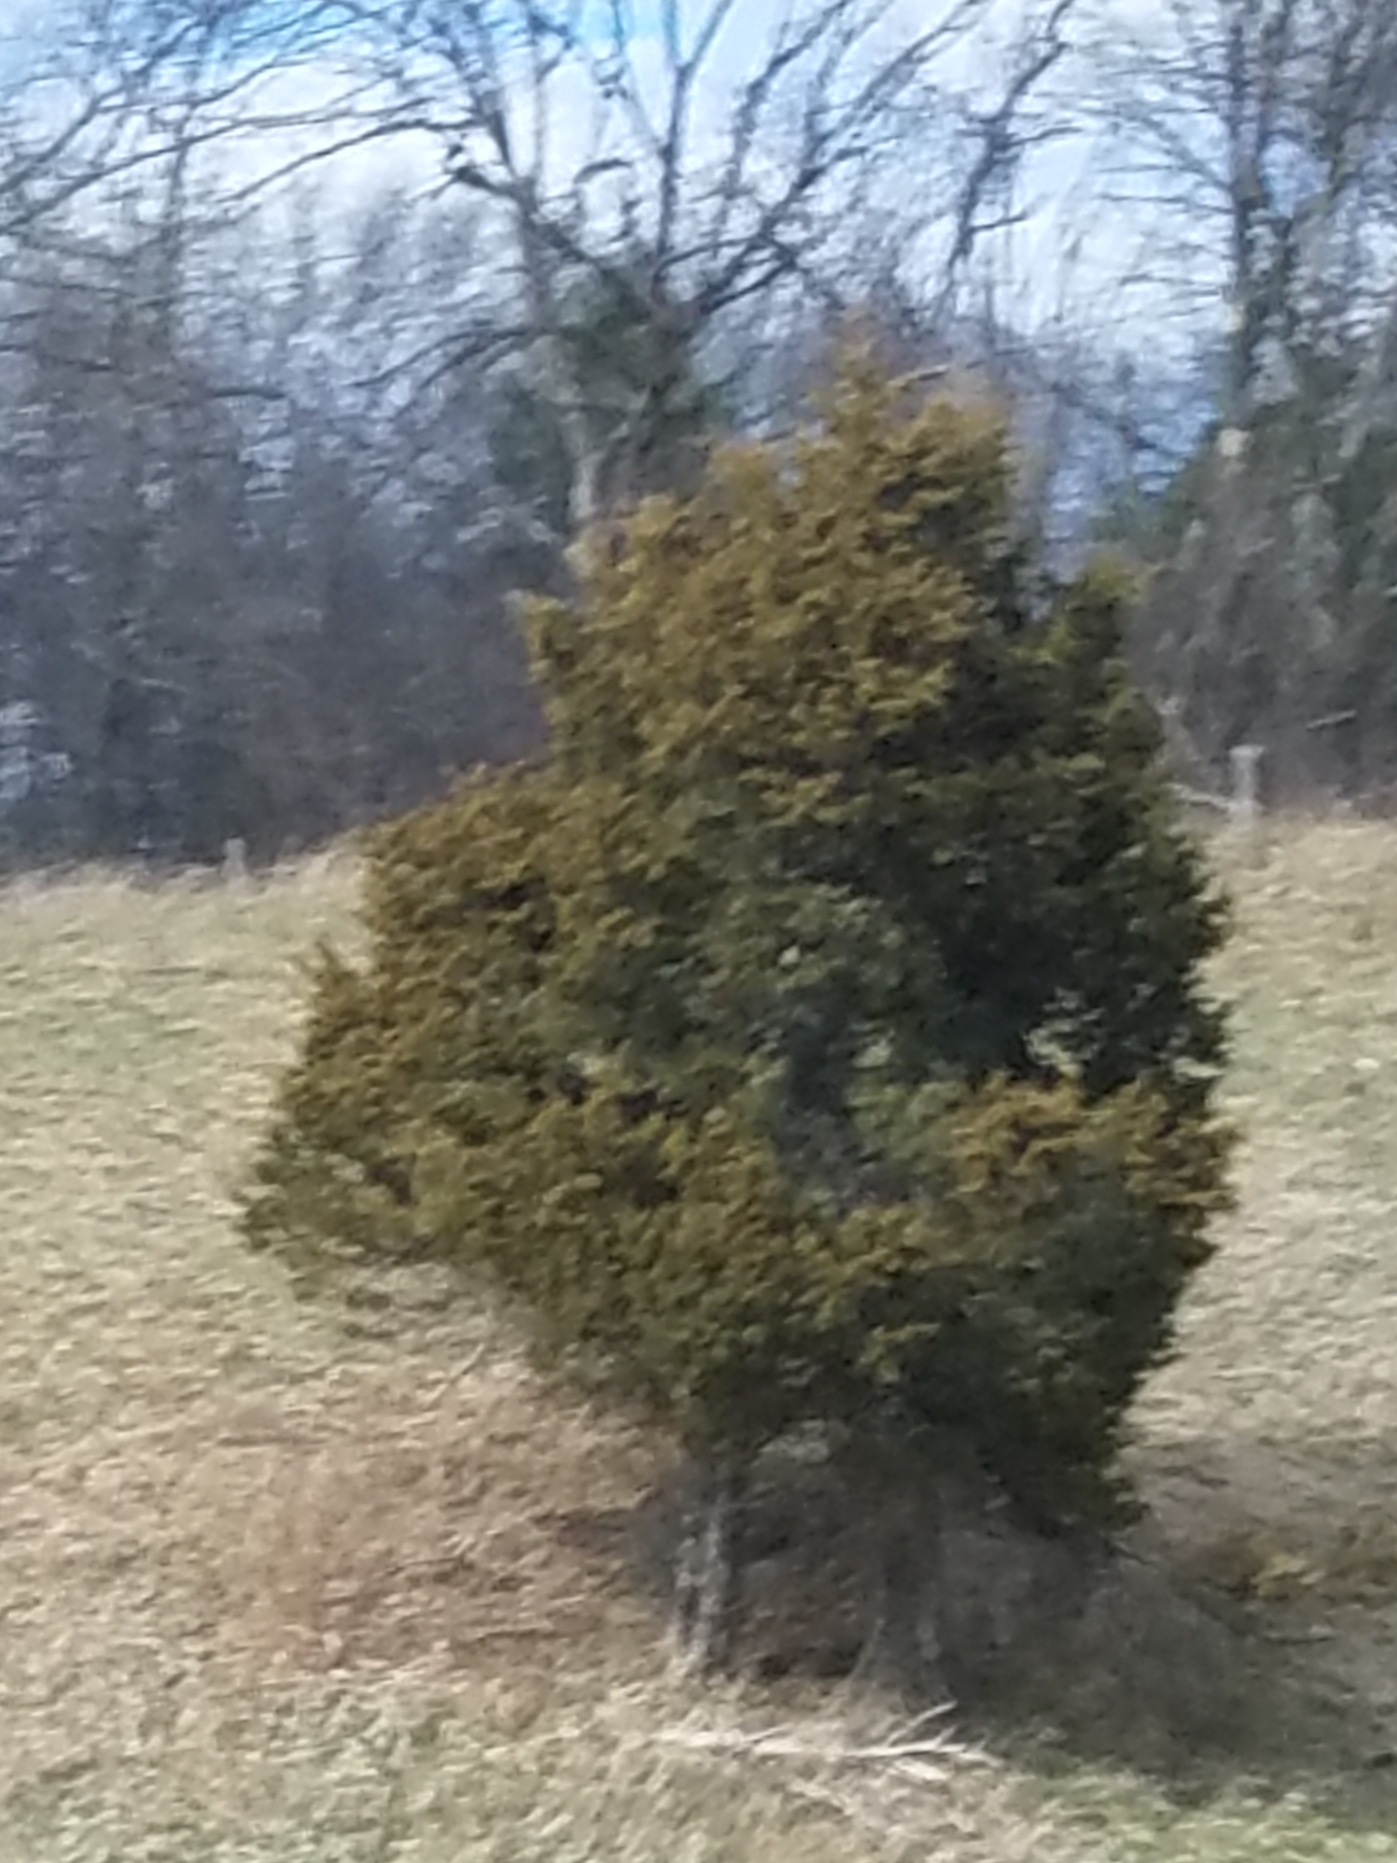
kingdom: Plantae
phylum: Tracheophyta
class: Pinopsida
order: Pinales
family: Cupressaceae
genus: Juniperus
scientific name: Juniperus virginiana
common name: Red juniper
